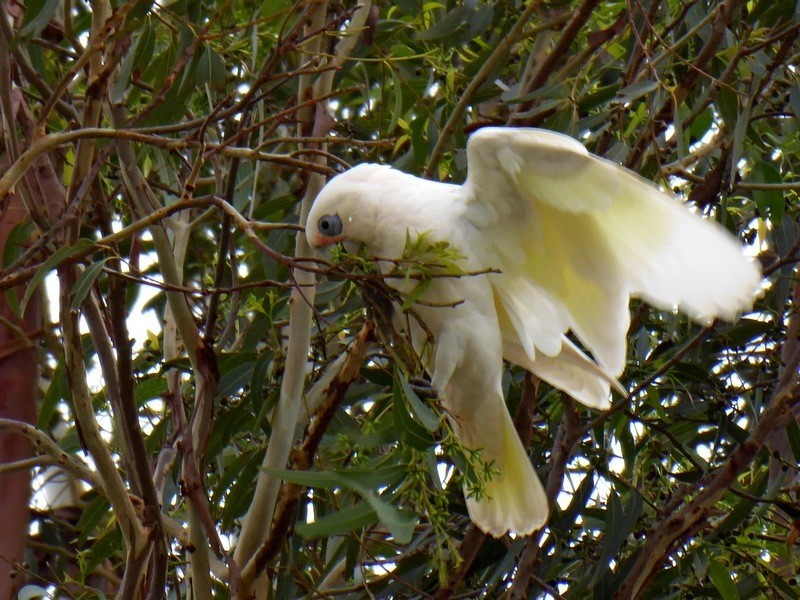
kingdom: Animalia
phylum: Chordata
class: Aves
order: Psittaciformes
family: Psittacidae
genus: Cacatua
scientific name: Cacatua sanguinea
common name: Little corella
